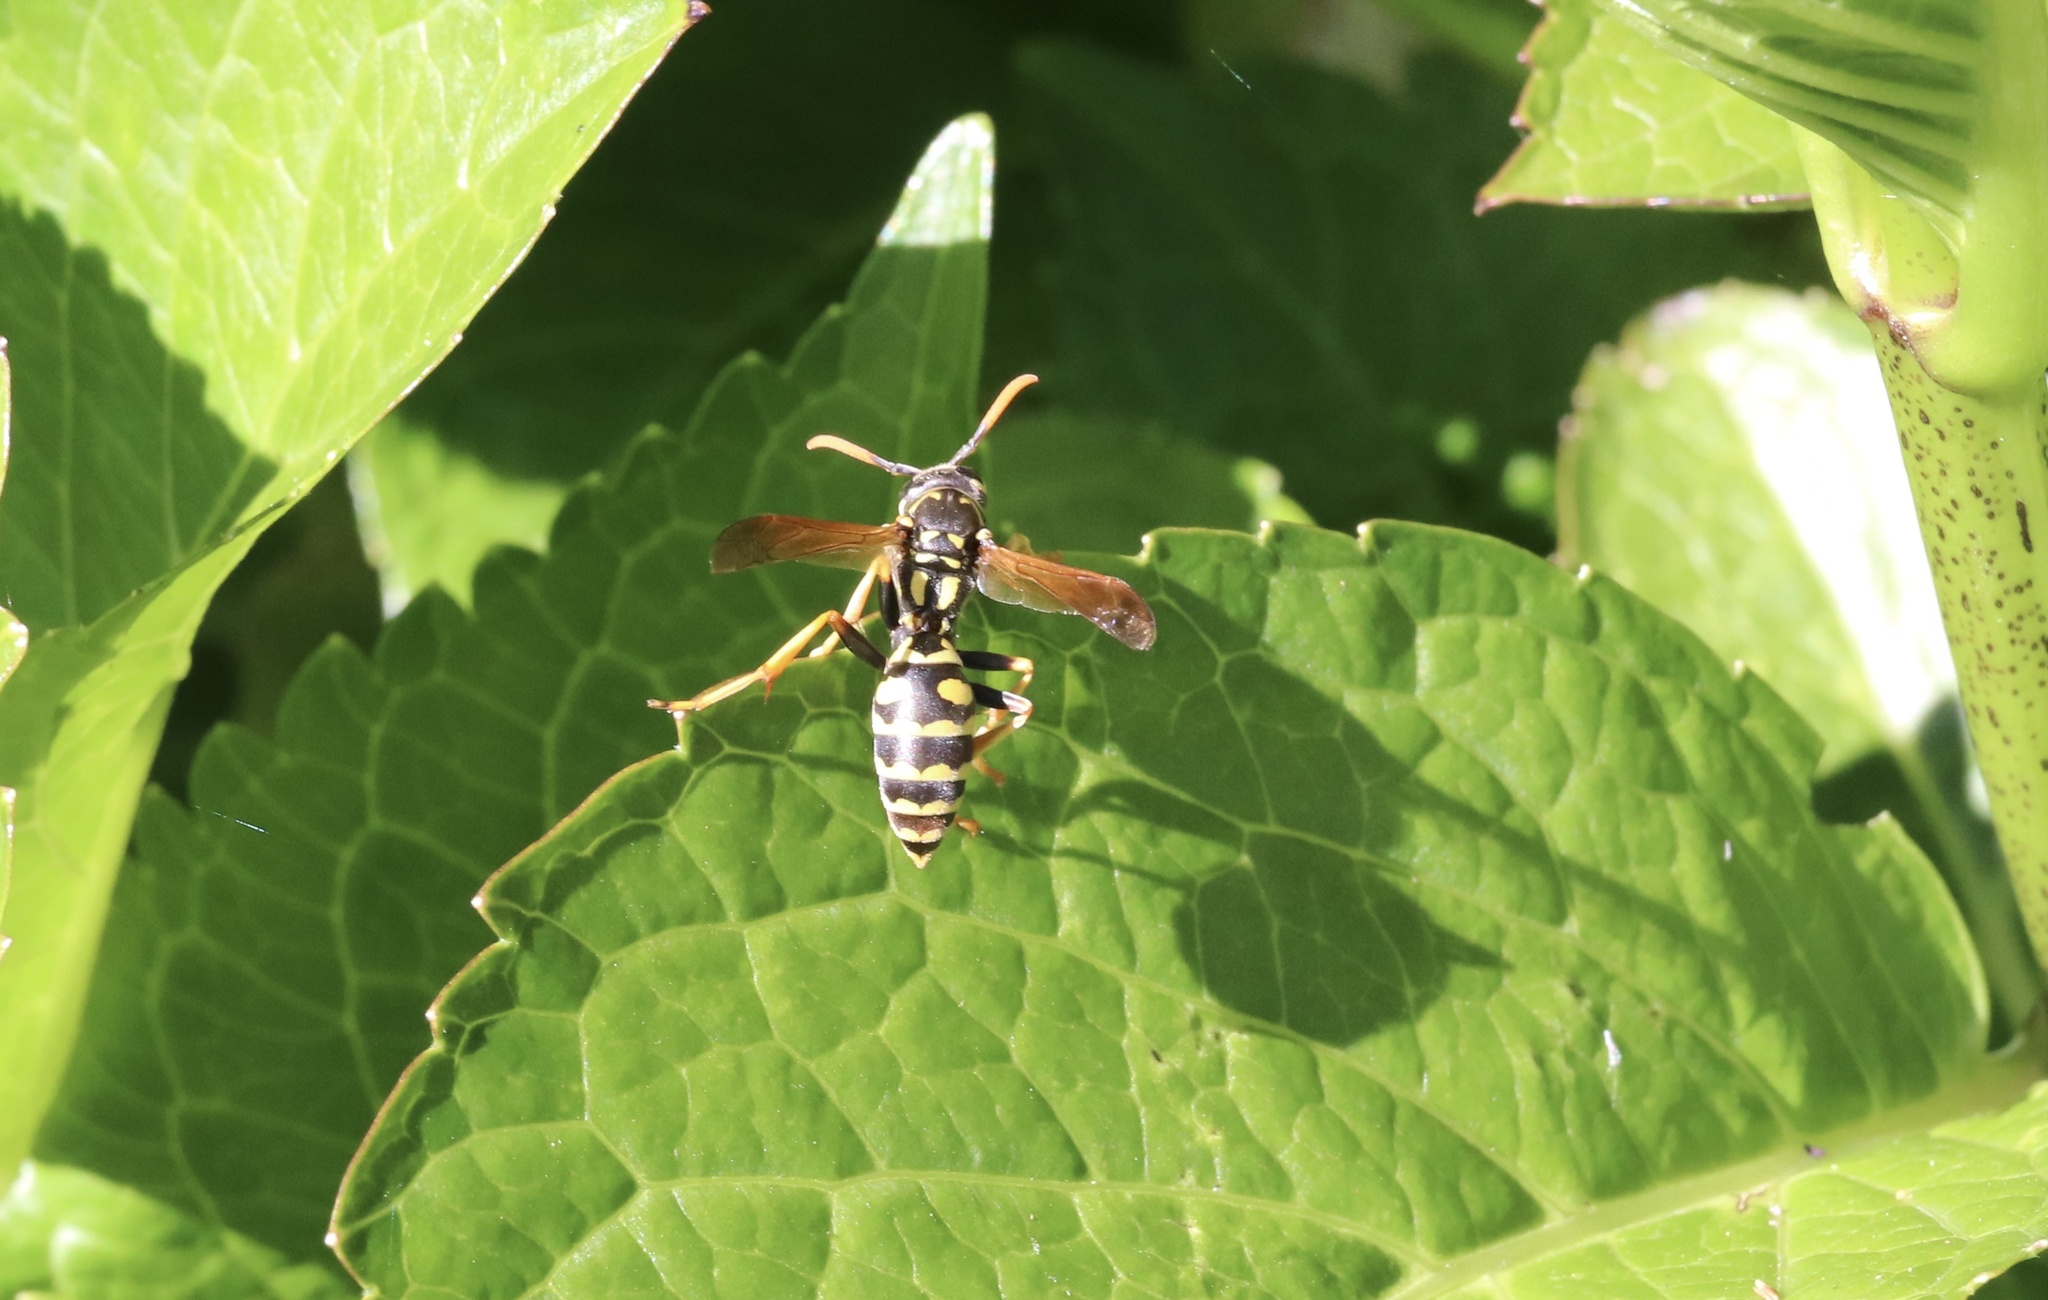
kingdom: Animalia
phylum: Arthropoda
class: Insecta
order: Hymenoptera
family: Eumenidae
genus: Polistes
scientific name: Polistes dominula
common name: Paper wasp
